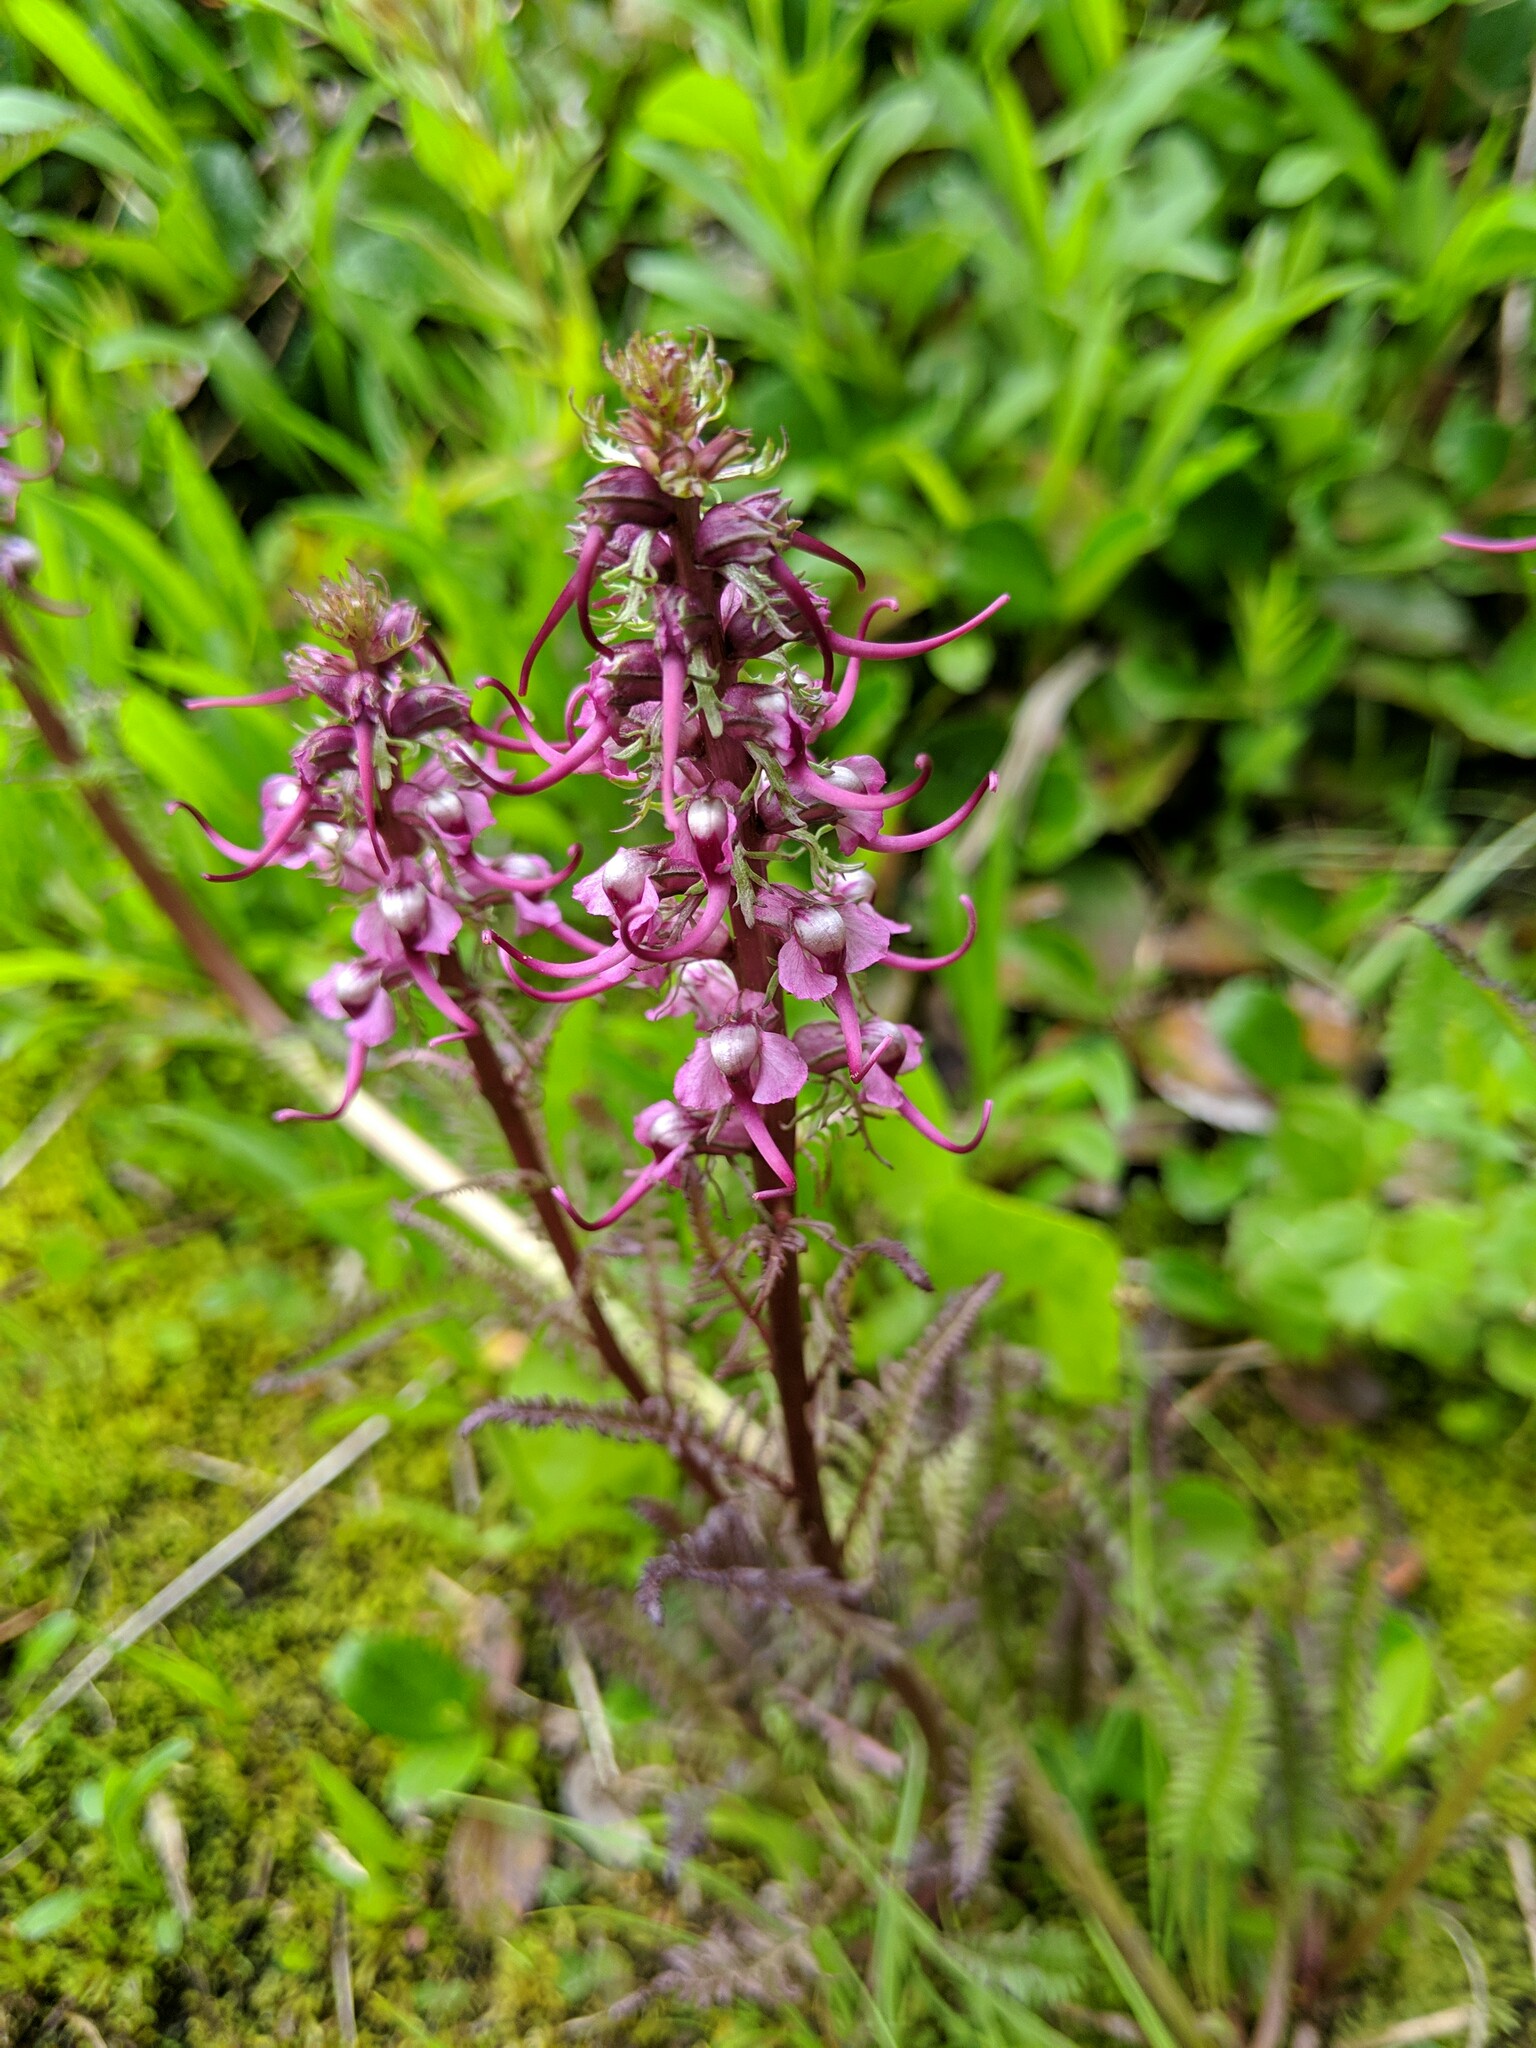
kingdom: Plantae
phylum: Tracheophyta
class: Magnoliopsida
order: Lamiales
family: Orobanchaceae
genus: Pedicularis
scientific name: Pedicularis groenlandica
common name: Elephant's-head
